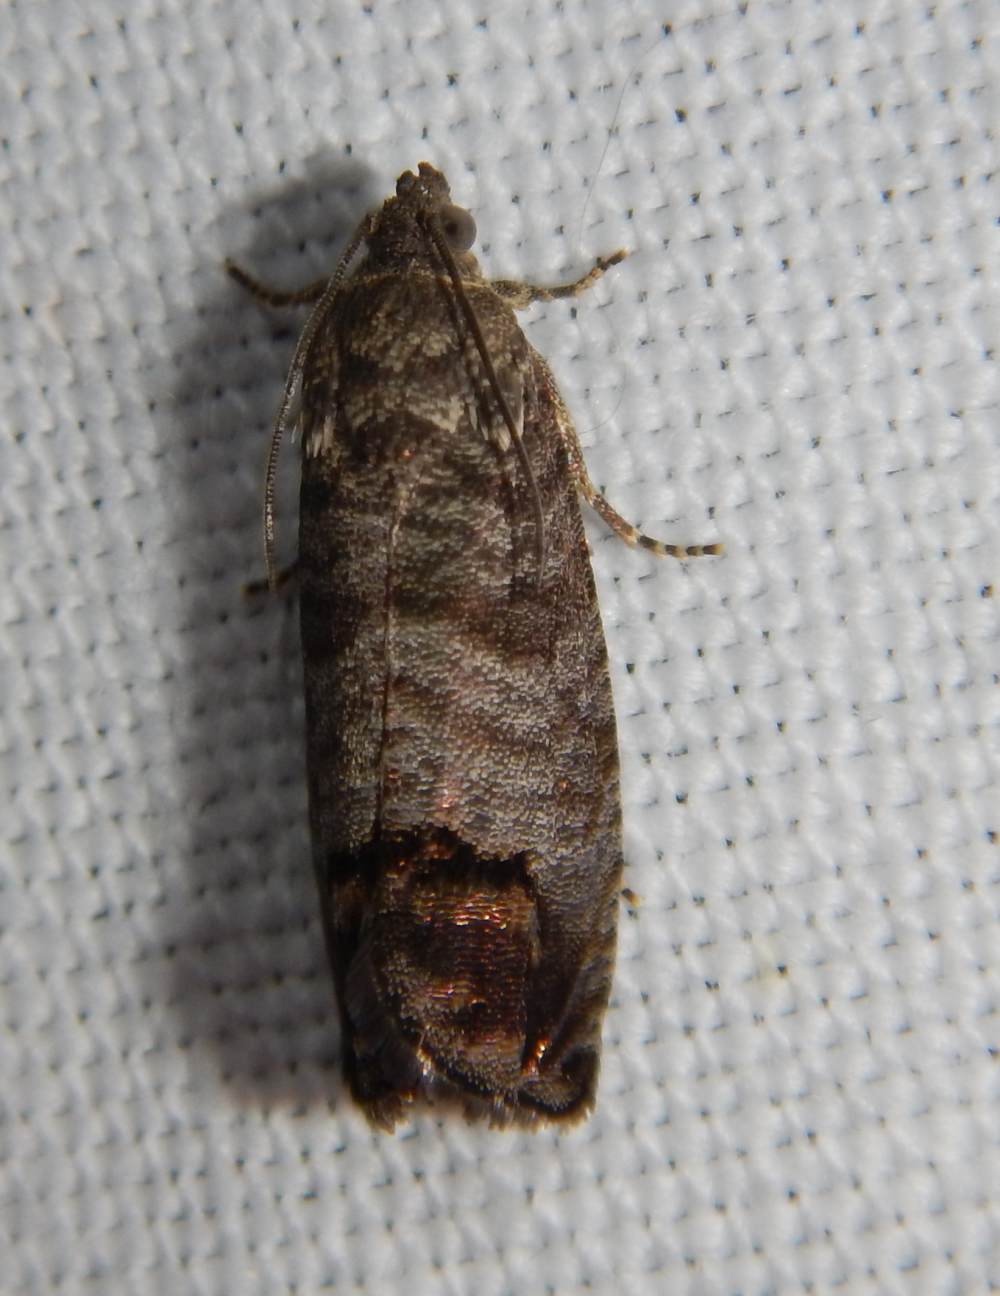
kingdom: Animalia
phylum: Arthropoda
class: Insecta
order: Lepidoptera
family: Tortricidae
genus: Cydia
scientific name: Cydia pomonella
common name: Codling moth
